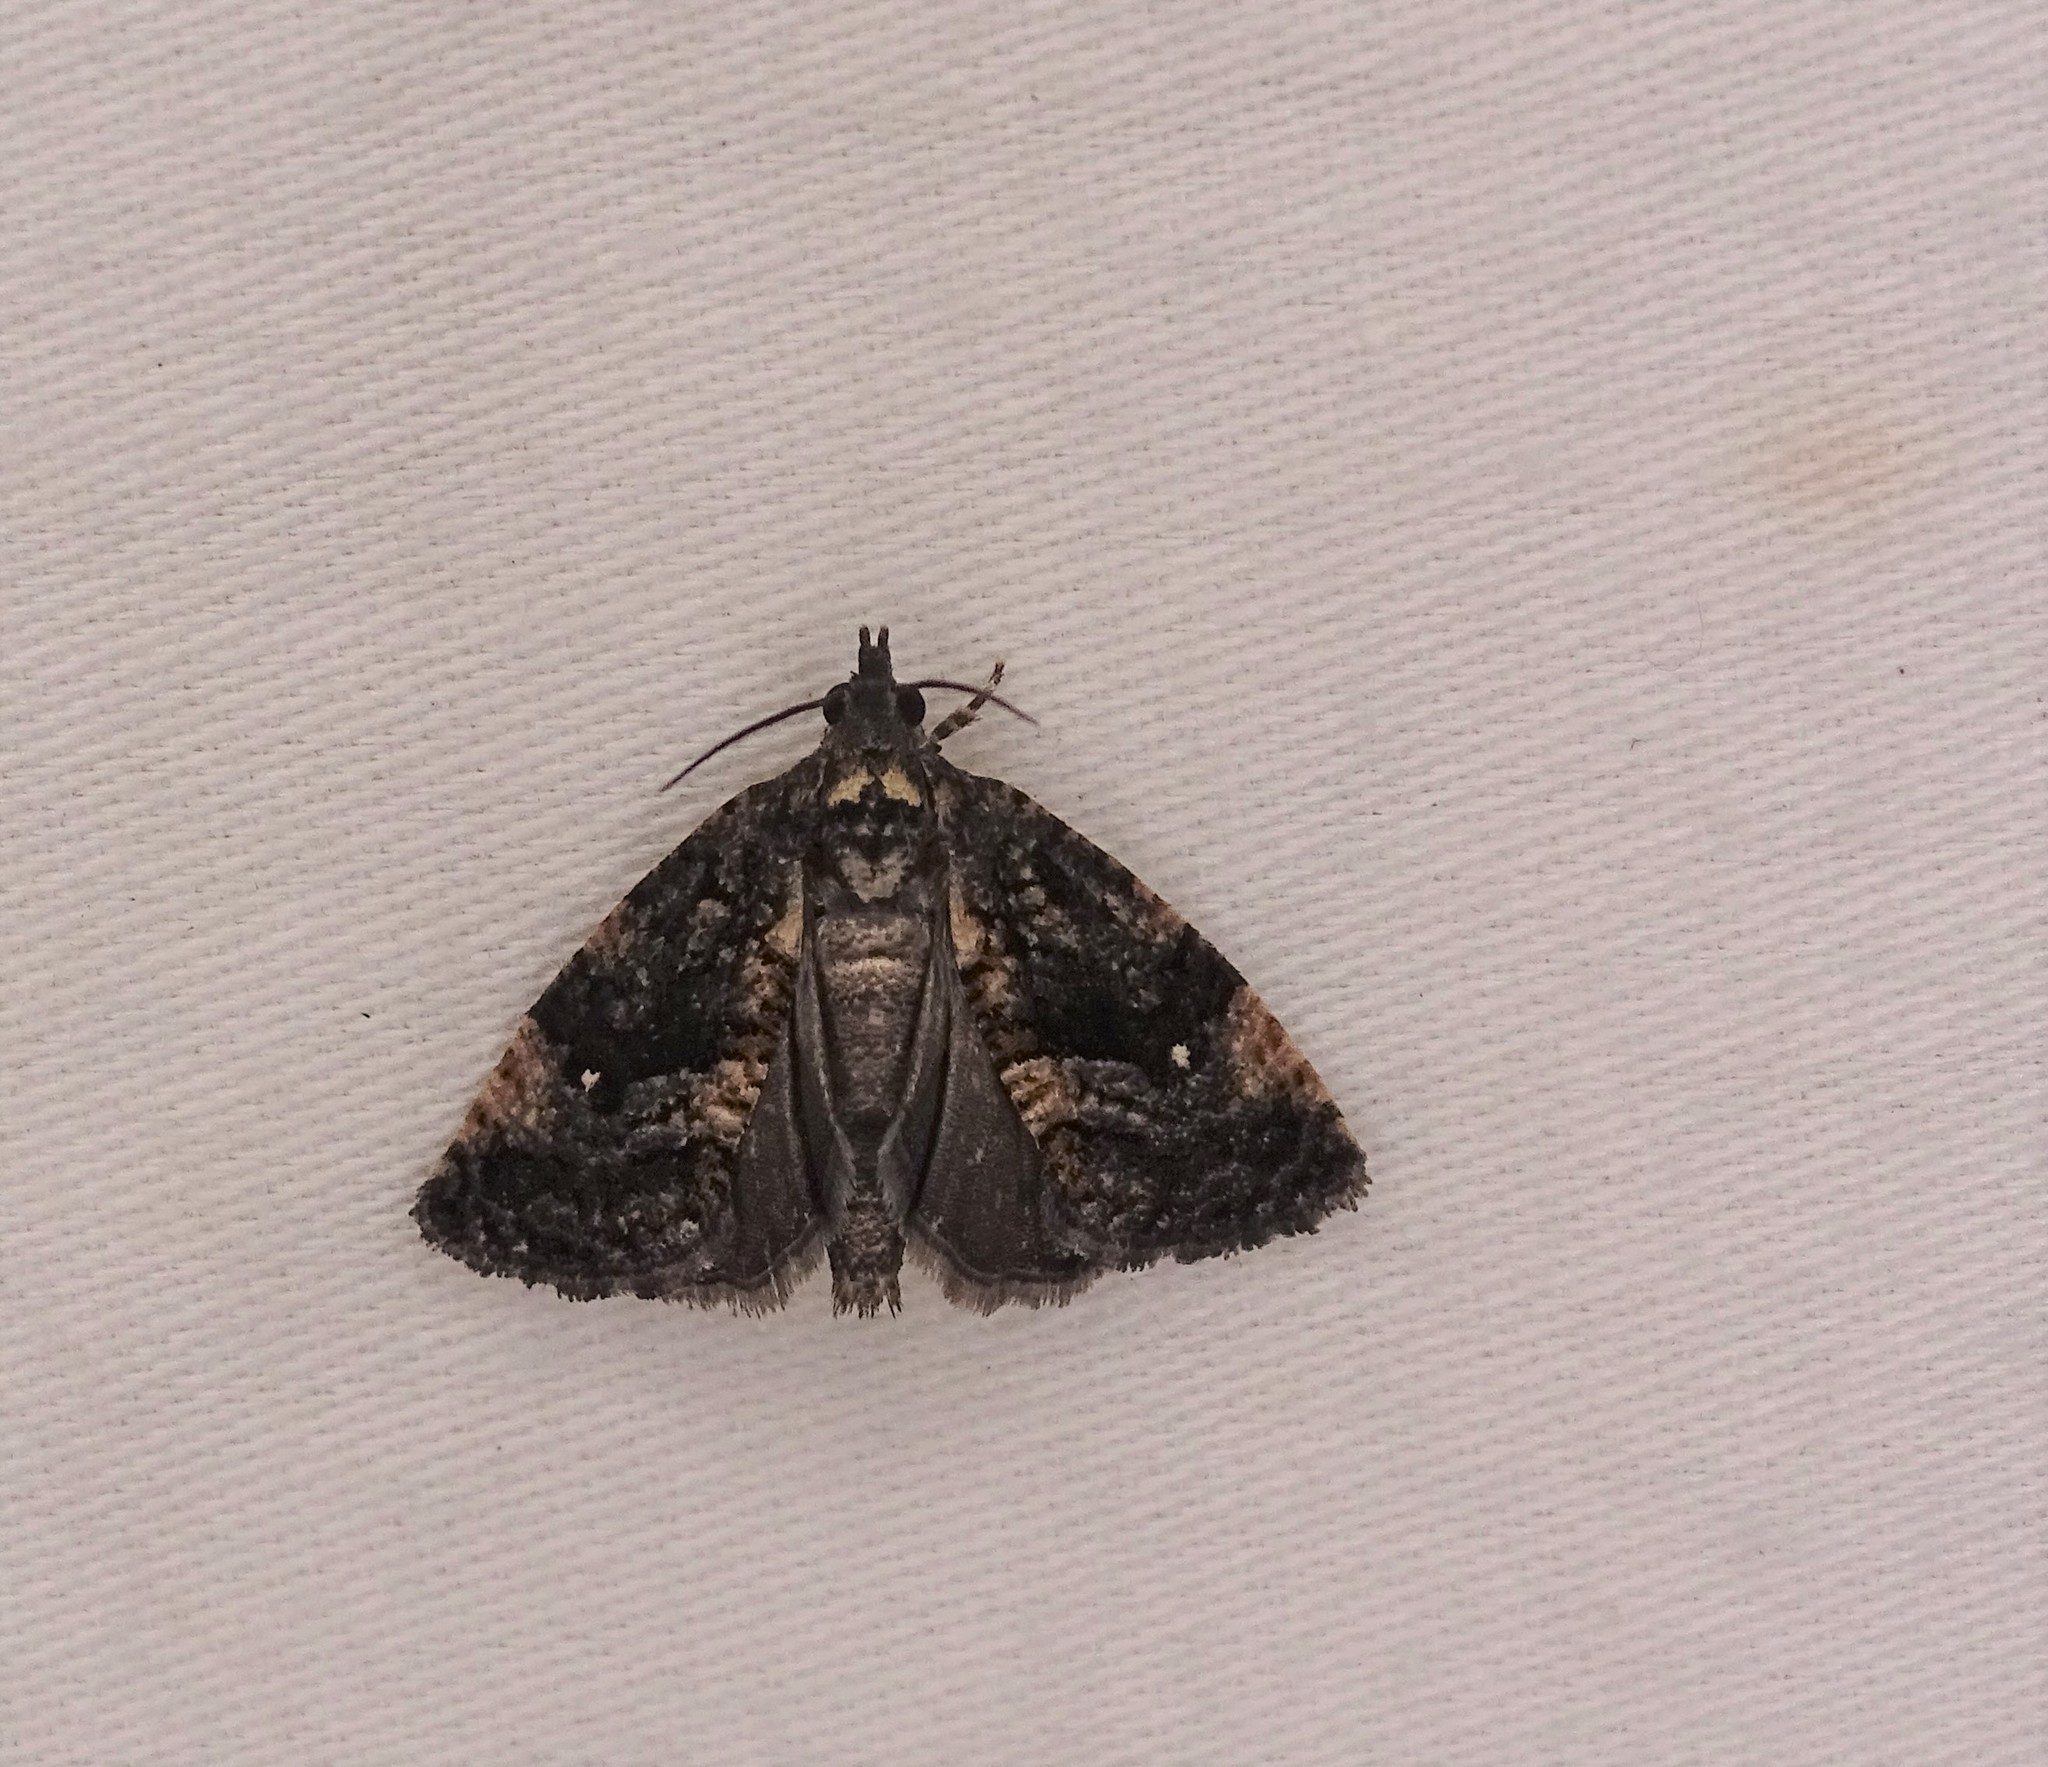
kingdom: Animalia
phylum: Arthropoda
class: Insecta
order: Lepidoptera
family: Tortricidae
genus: Gymnandrosoma
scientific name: Gymnandrosoma punctidiscanum
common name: Dotted ecdytolopha moth
